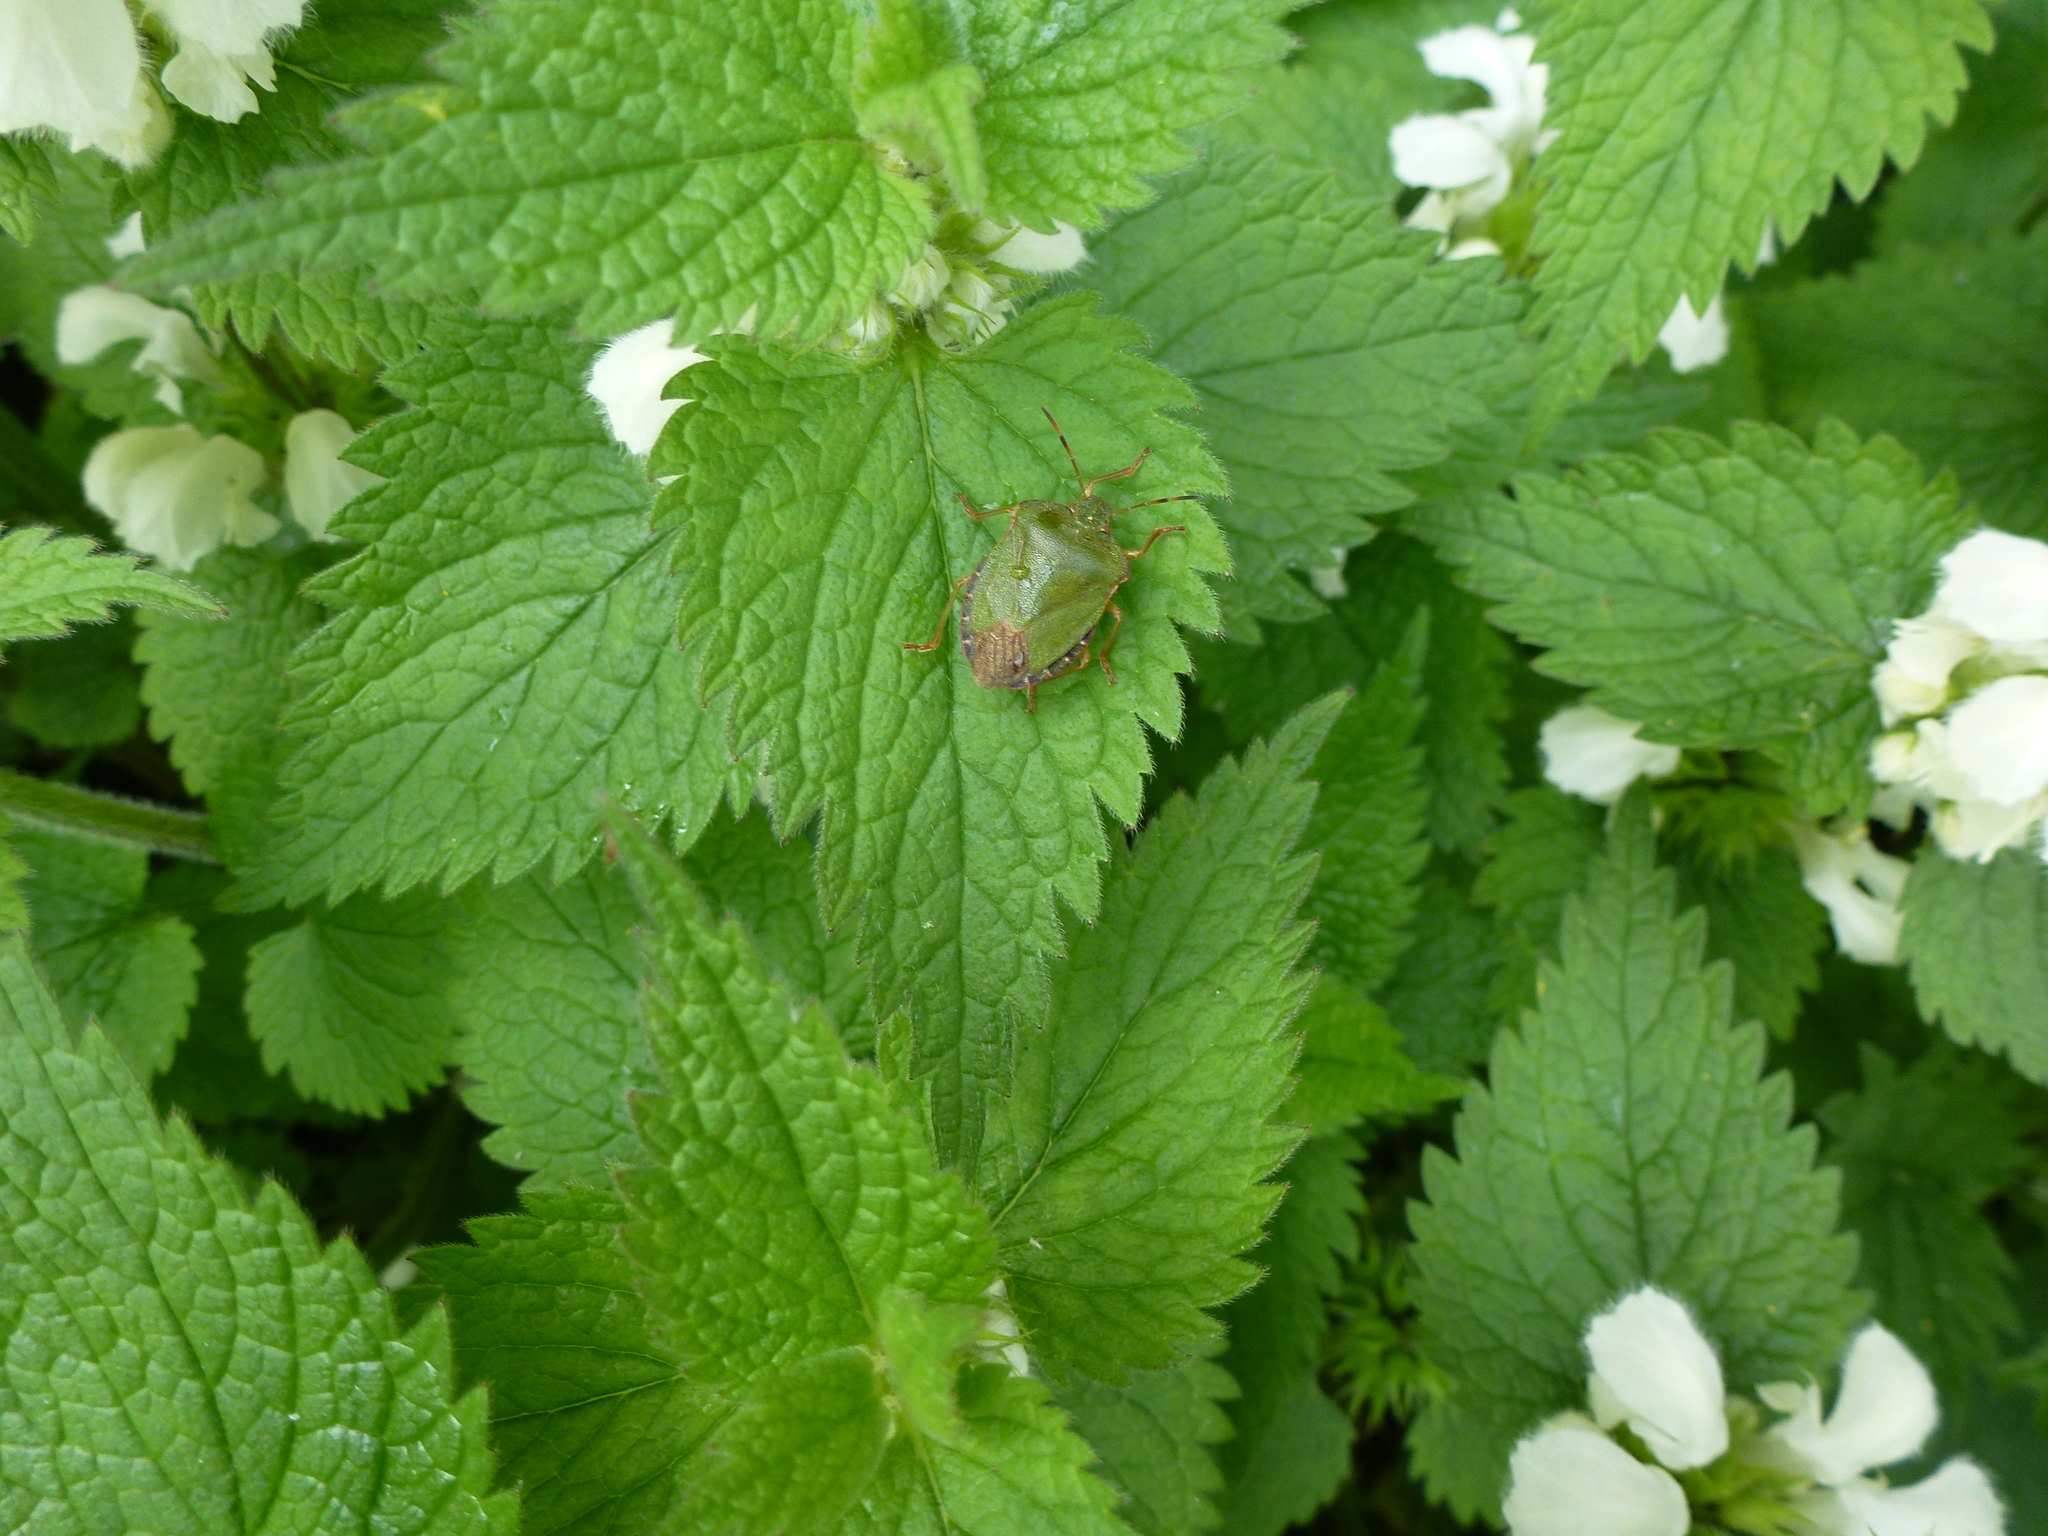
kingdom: Animalia
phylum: Arthropoda
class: Insecta
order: Hemiptera
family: Pentatomidae
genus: Palomena
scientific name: Palomena prasina
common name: Green shieldbug
